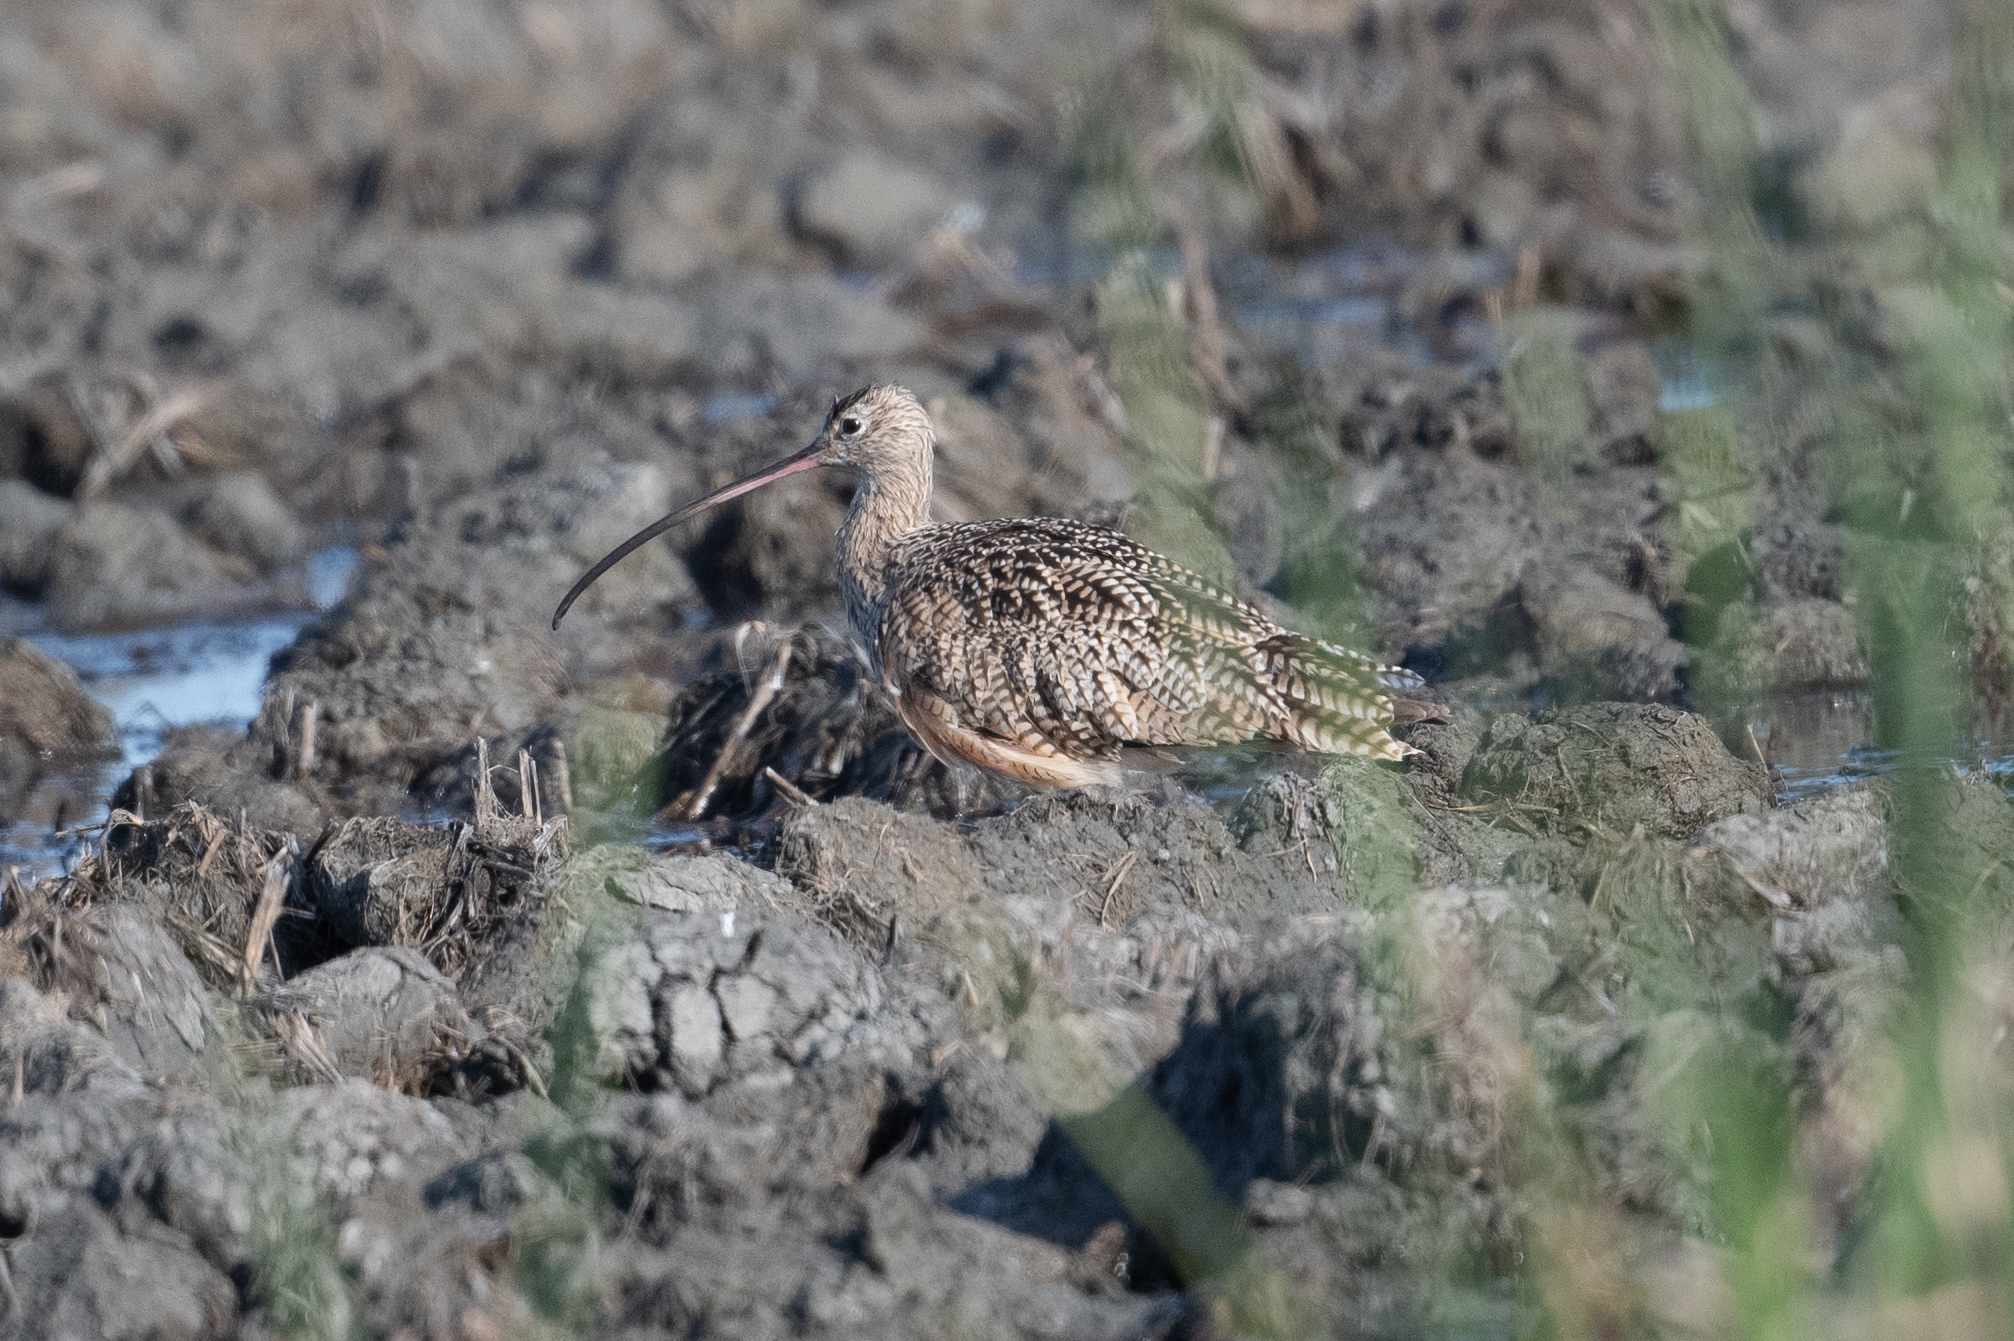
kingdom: Animalia
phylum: Chordata
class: Aves
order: Charadriiformes
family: Scolopacidae
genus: Numenius
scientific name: Numenius americanus
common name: Long-billed curlew
